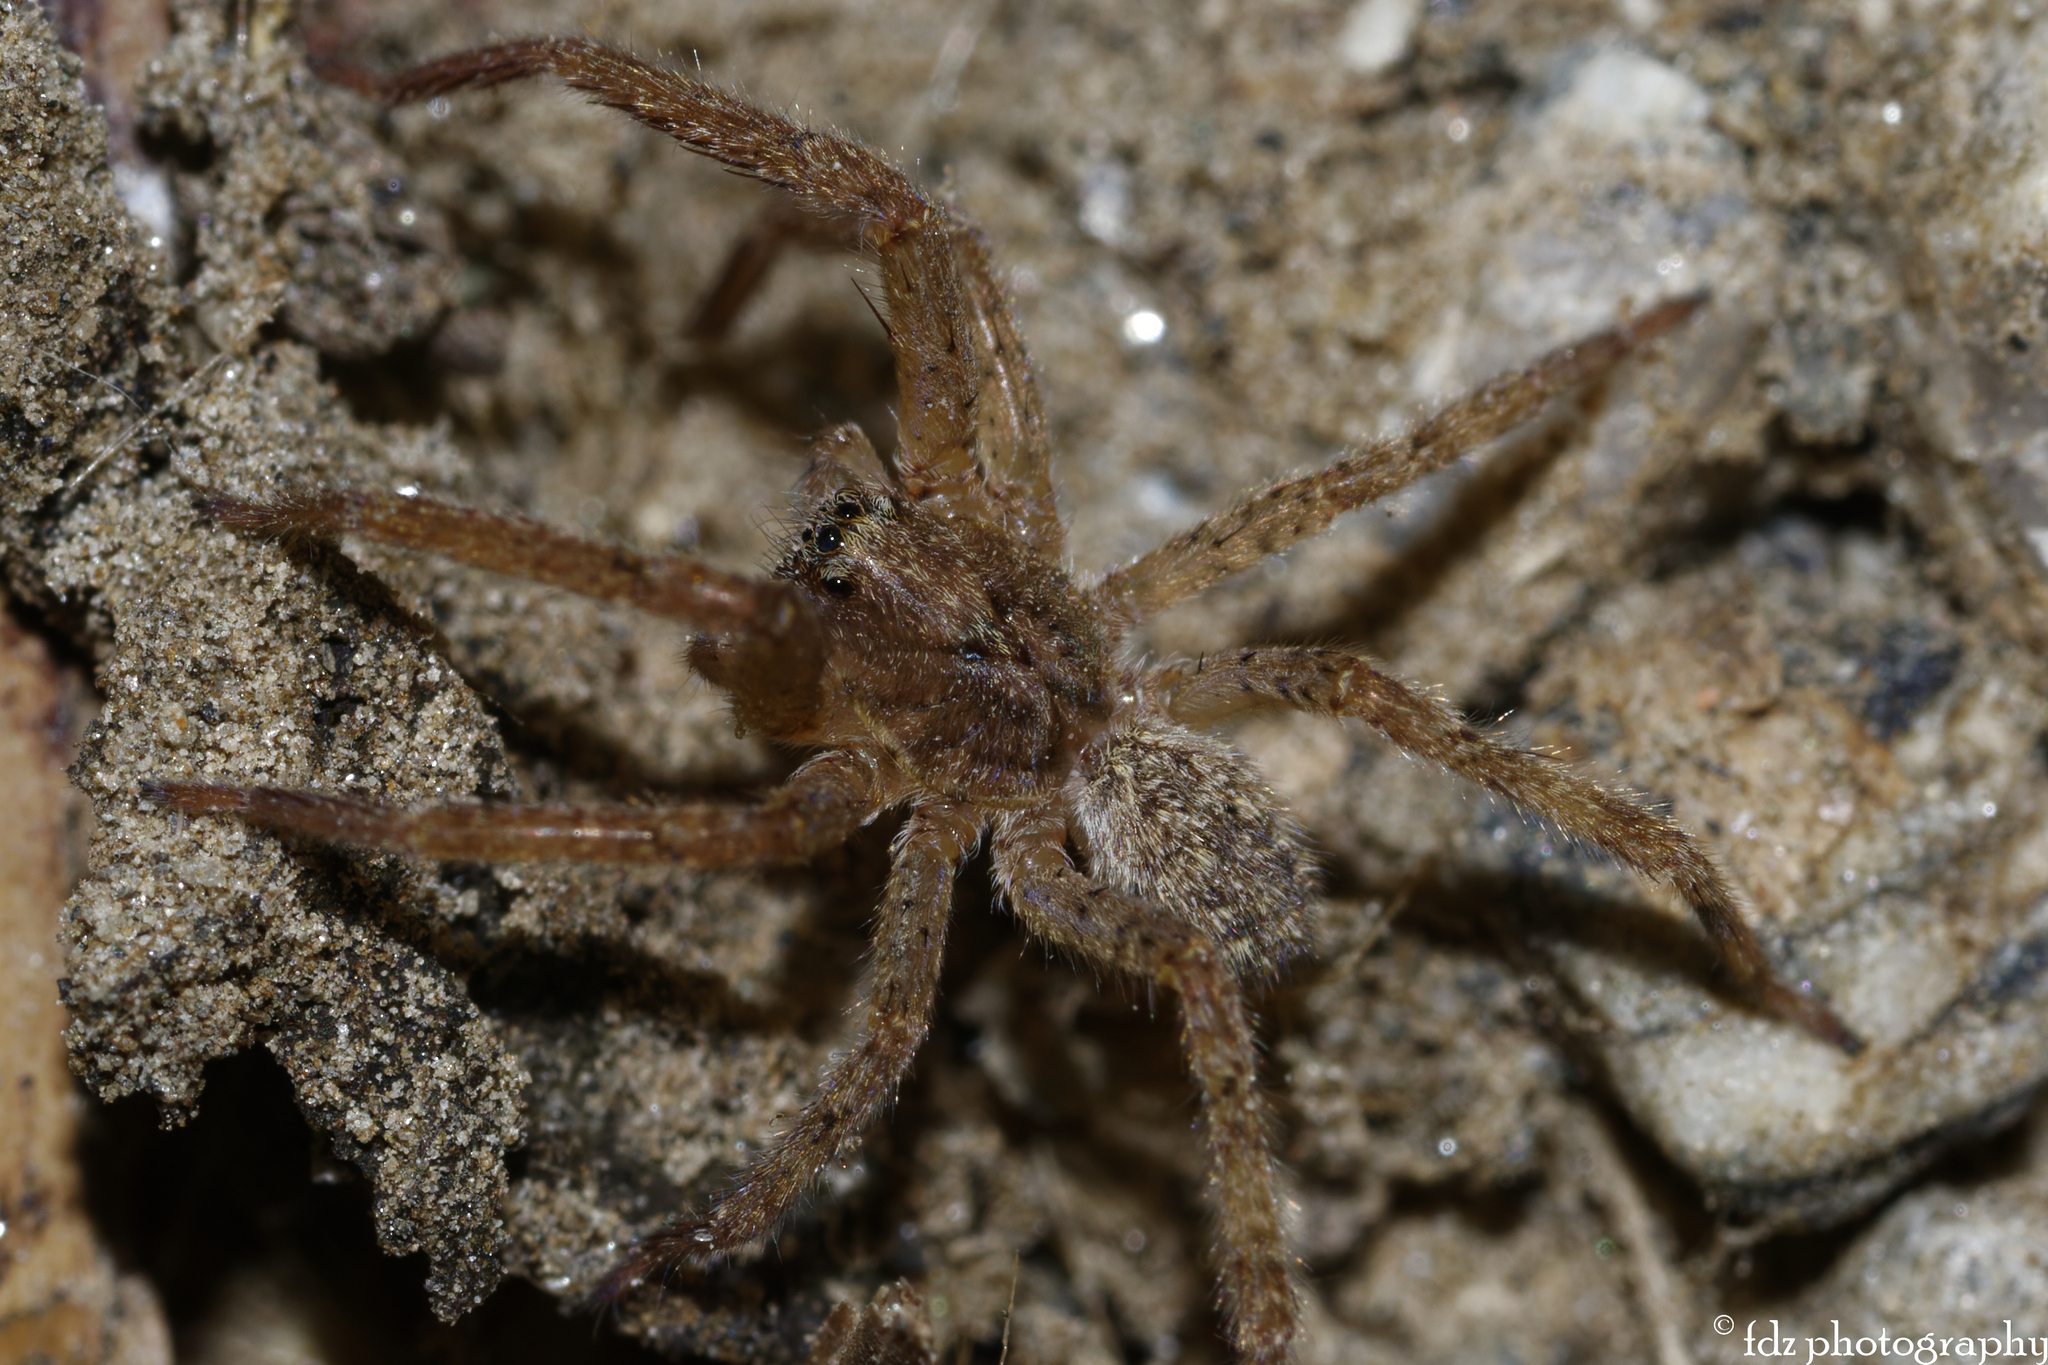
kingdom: Animalia
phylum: Arthropoda
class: Arachnida
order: Araneae
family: Zoropsidae
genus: Zoropsis
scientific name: Zoropsis spinimana
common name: Zoropsid spider
